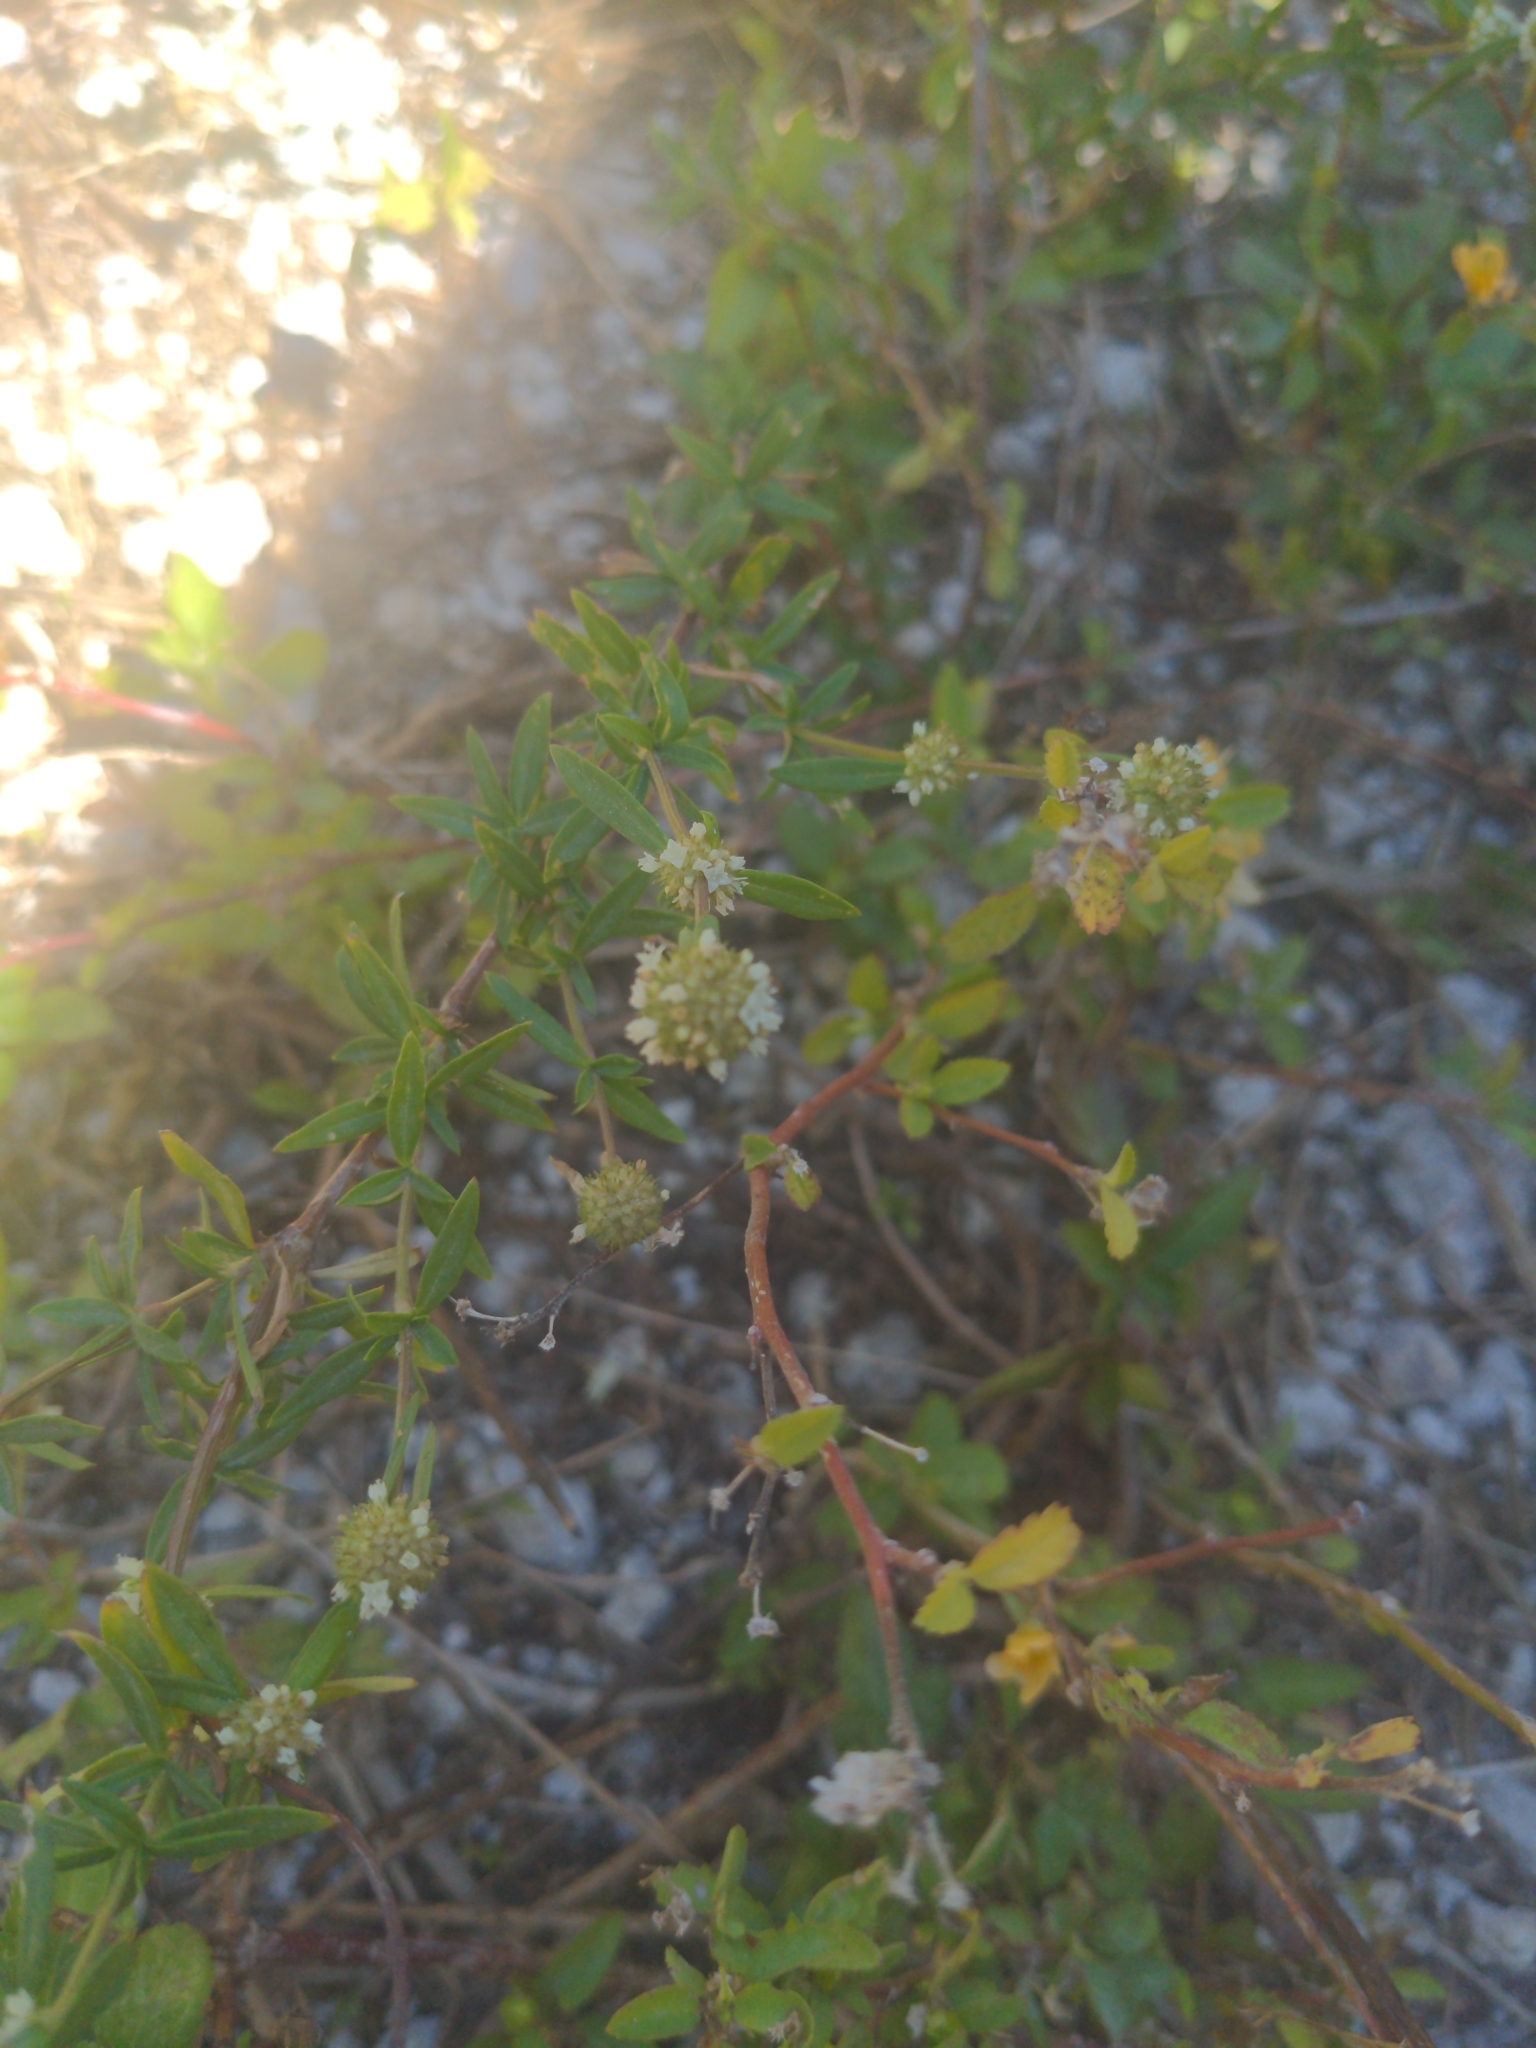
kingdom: Plantae
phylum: Tracheophyta
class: Magnoliopsida
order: Gentianales
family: Rubiaceae
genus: Spermacoce
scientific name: Spermacoce verticillata
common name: Shrubby false buttonweed
